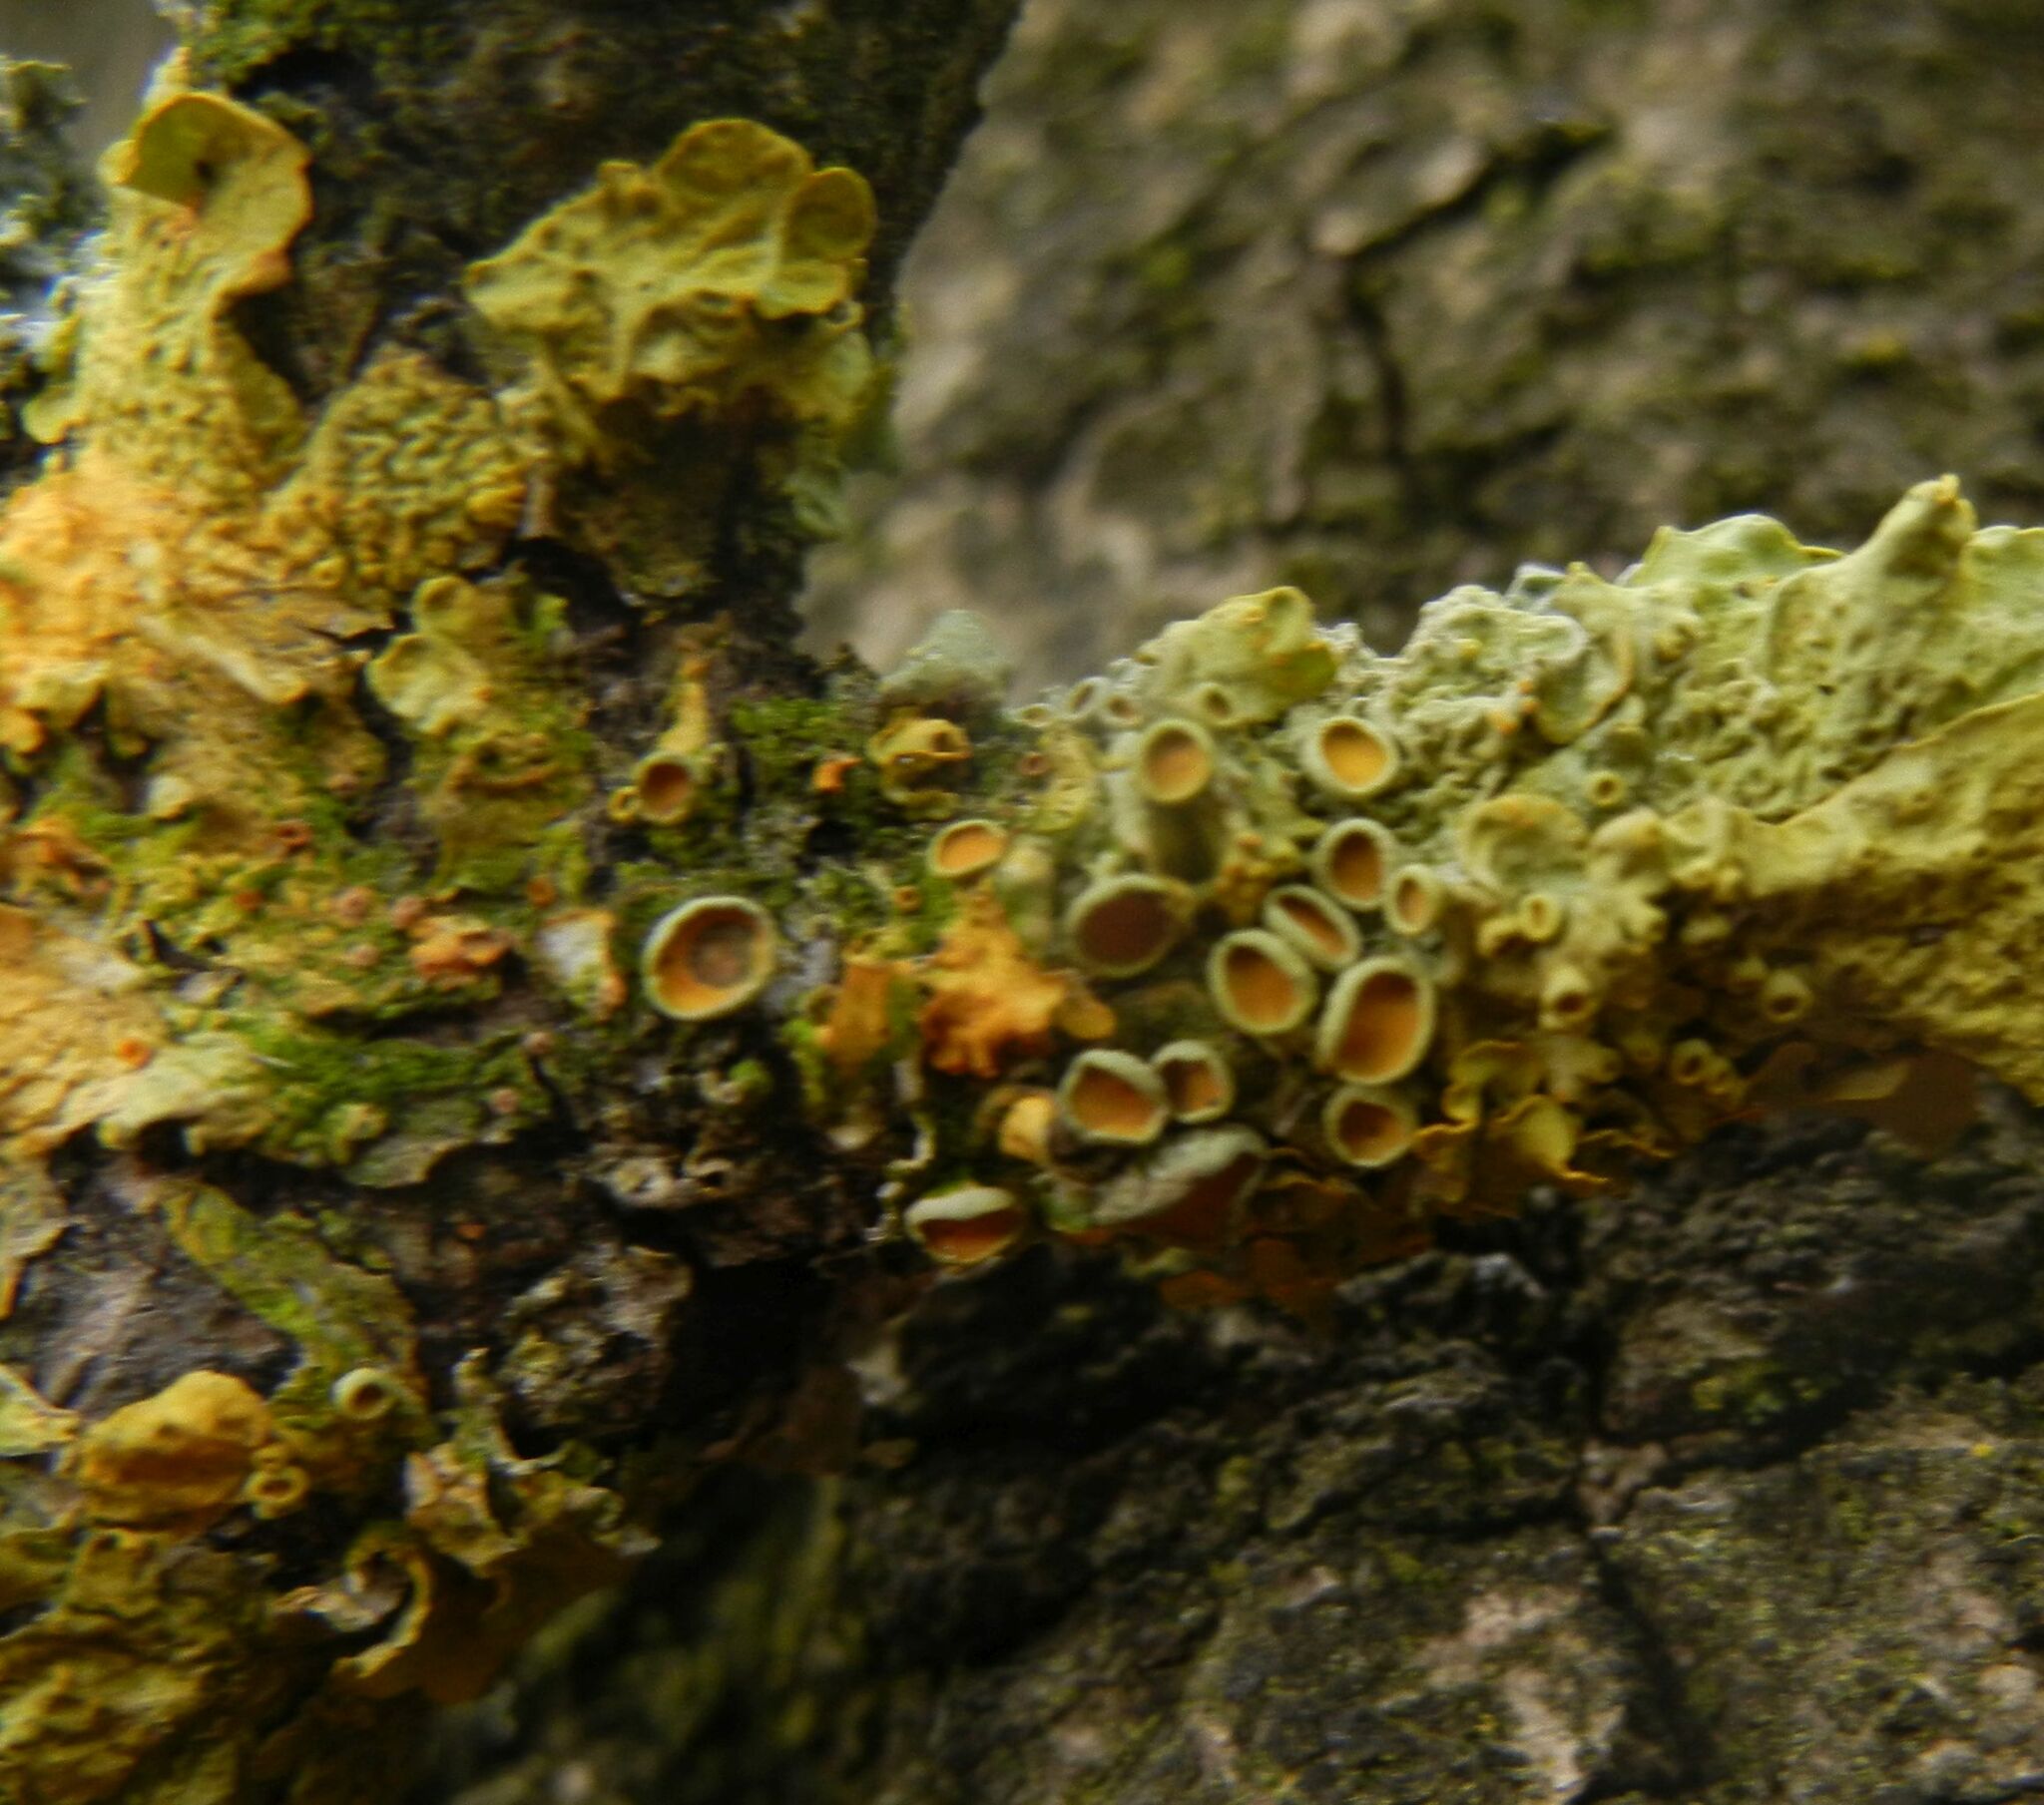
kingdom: Fungi
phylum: Ascomycota
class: Lecanoromycetes
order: Teloschistales
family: Teloschistaceae
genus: Xanthoria
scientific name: Xanthoria parietina
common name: Common orange lichen
